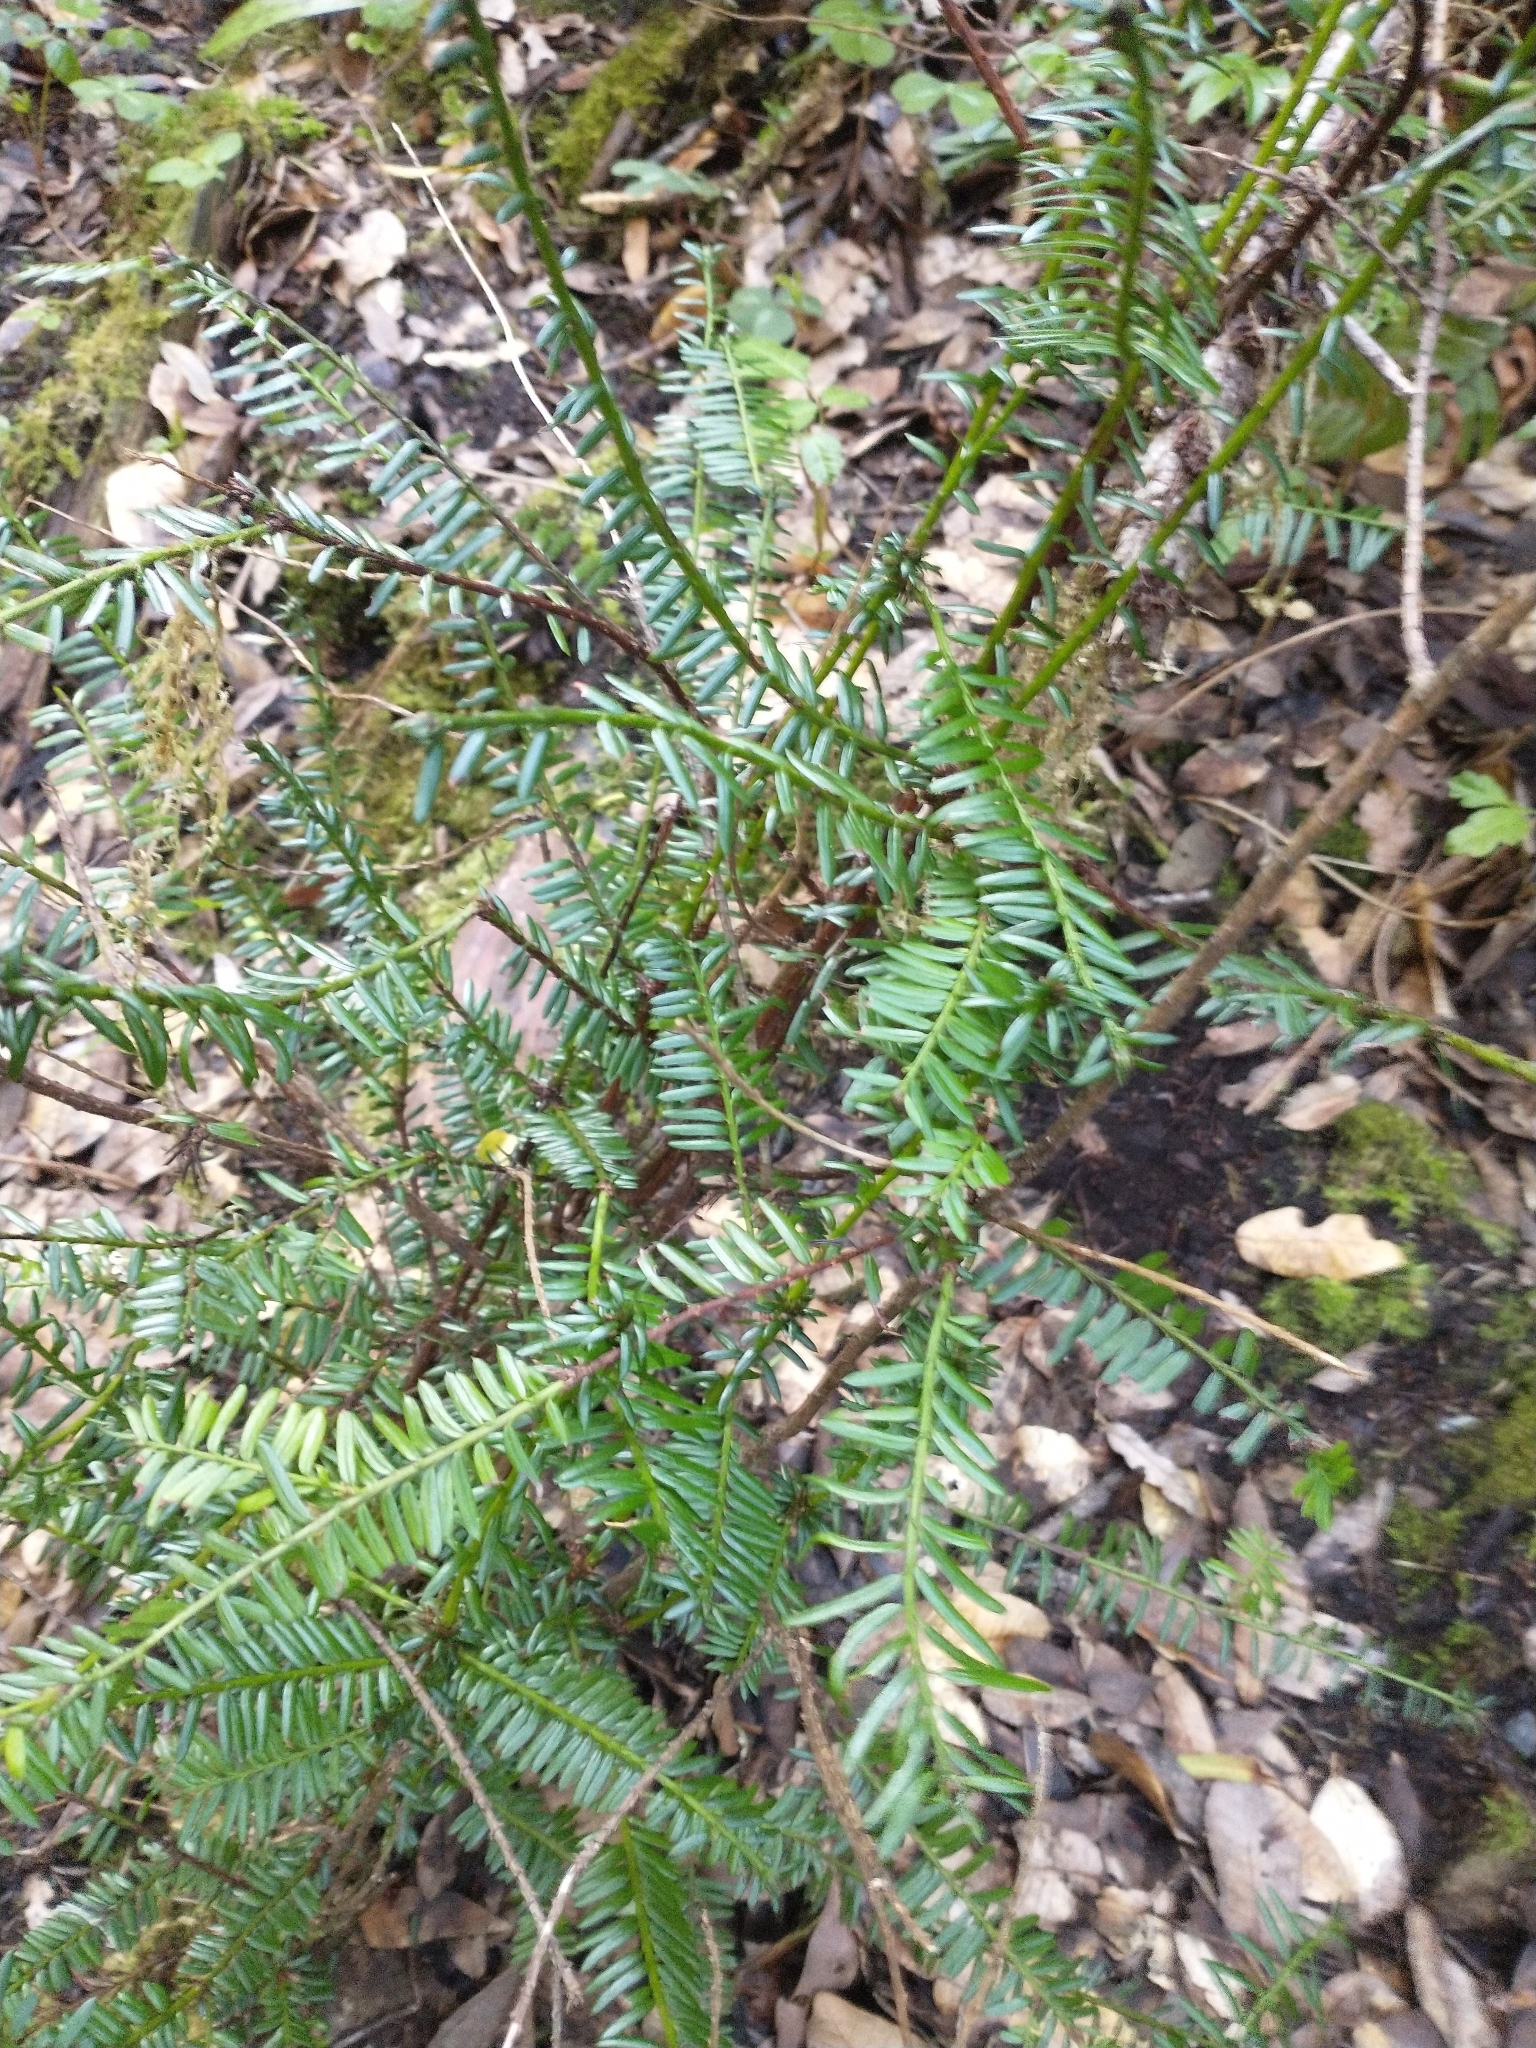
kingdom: Plantae
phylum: Tracheophyta
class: Pinopsida
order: Pinales
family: Taxaceae
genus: Taxus
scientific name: Taxus brevifolia
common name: Pacific yew
